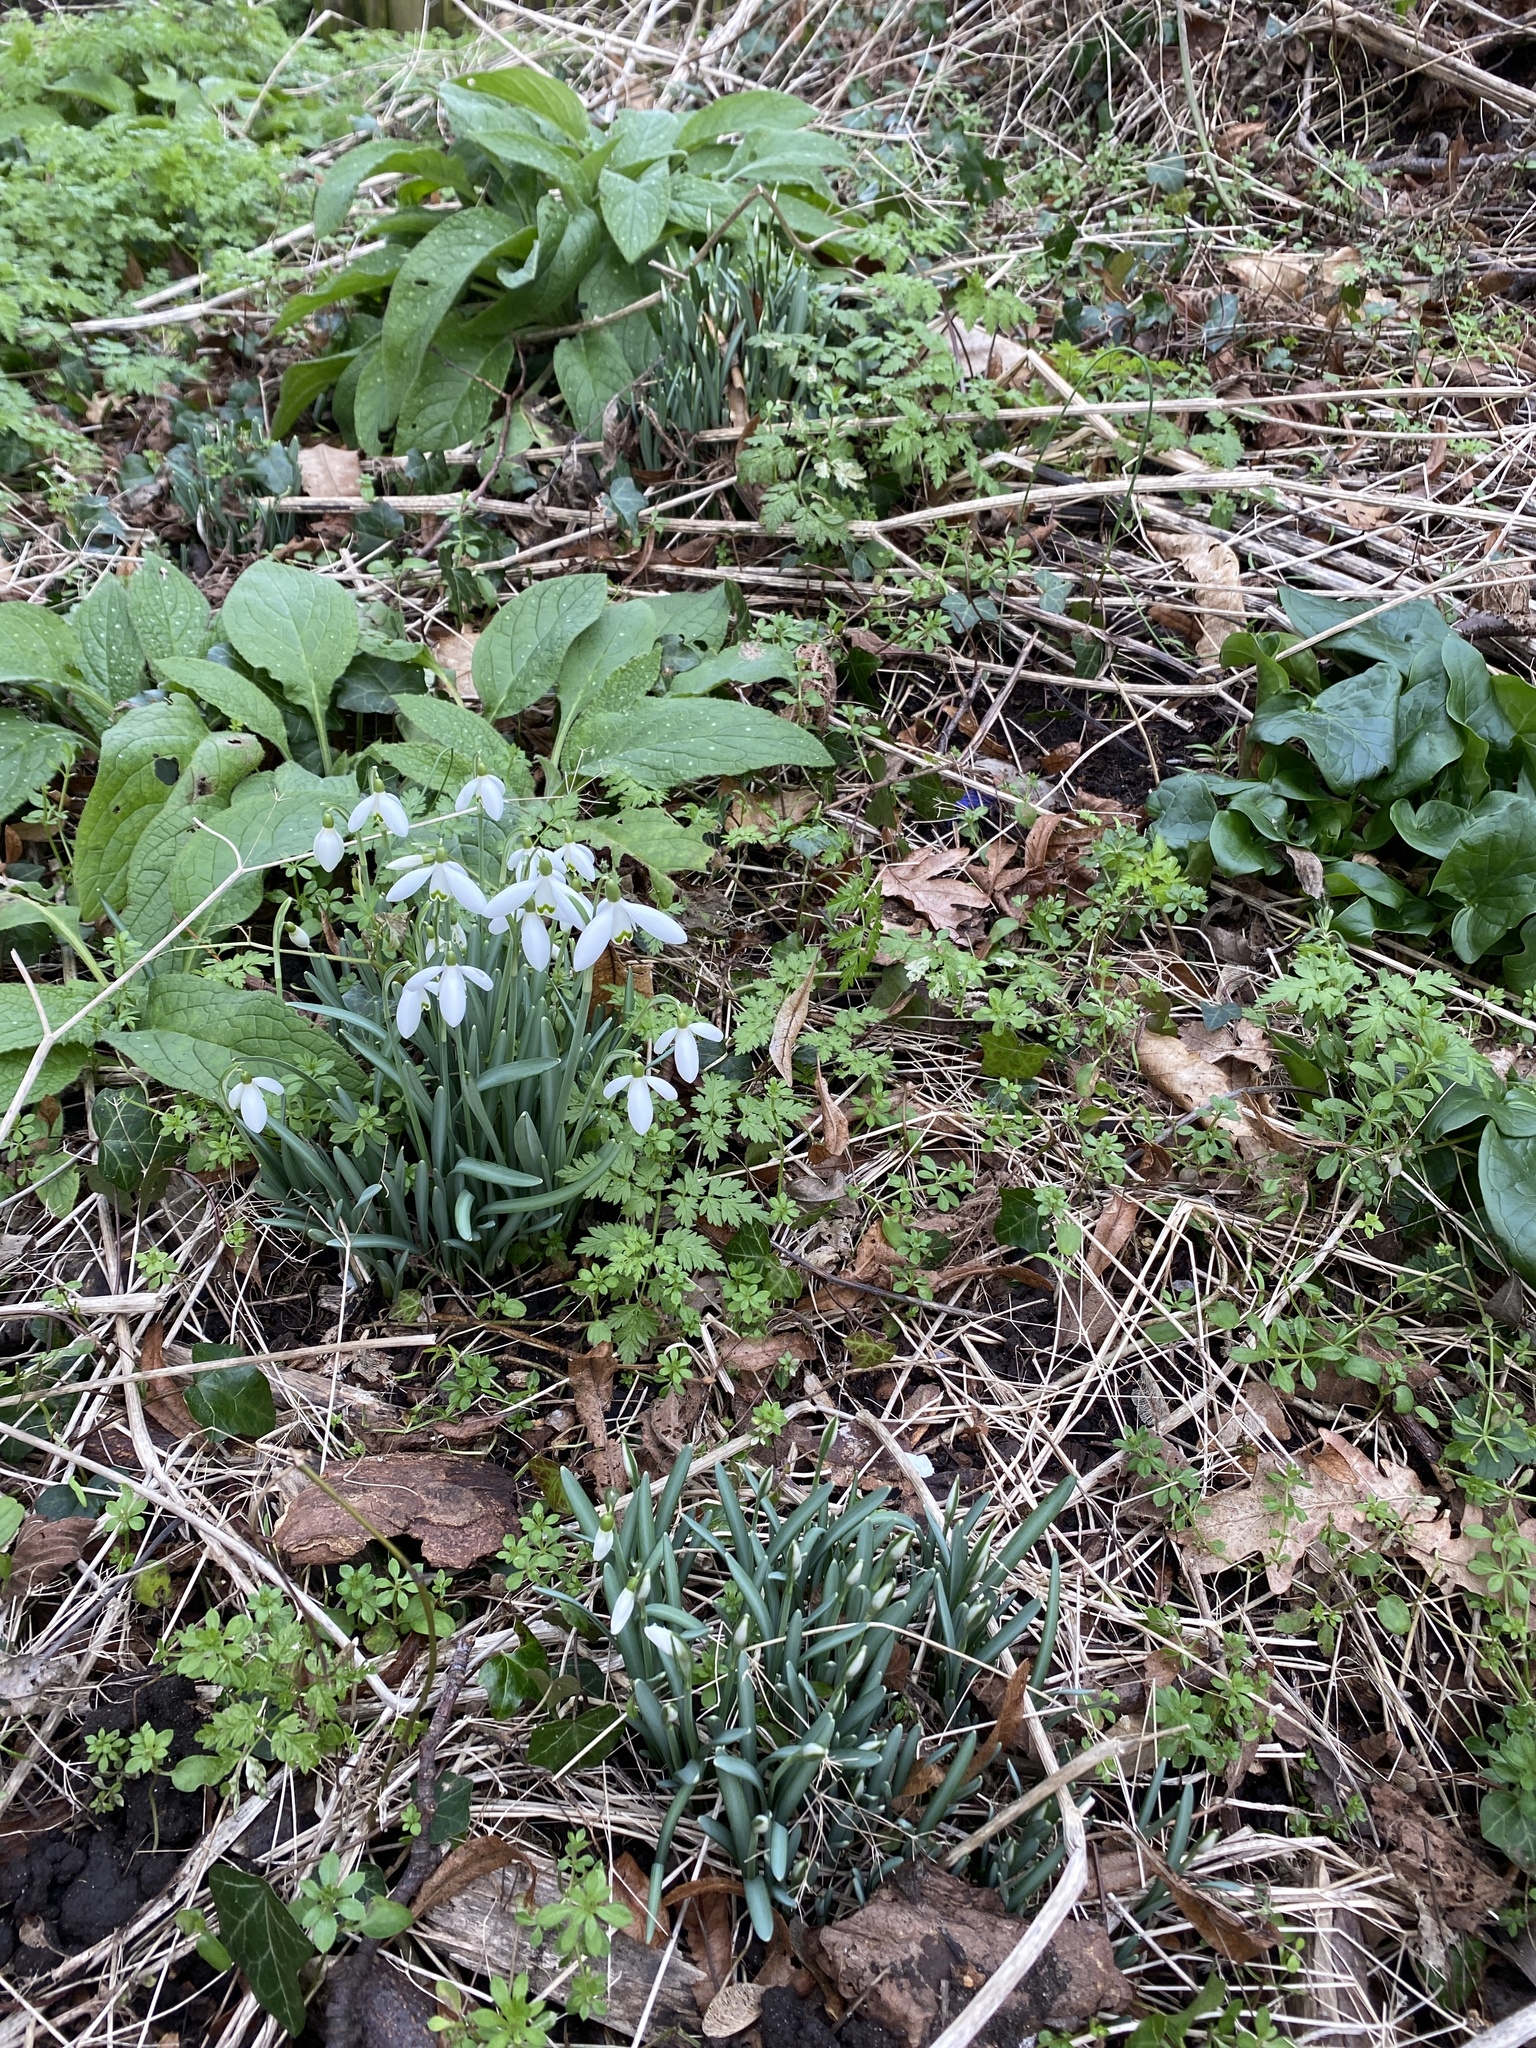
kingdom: Plantae
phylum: Tracheophyta
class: Liliopsida
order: Asparagales
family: Amaryllidaceae
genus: Galanthus
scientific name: Galanthus nivalis
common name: Snowdrop
